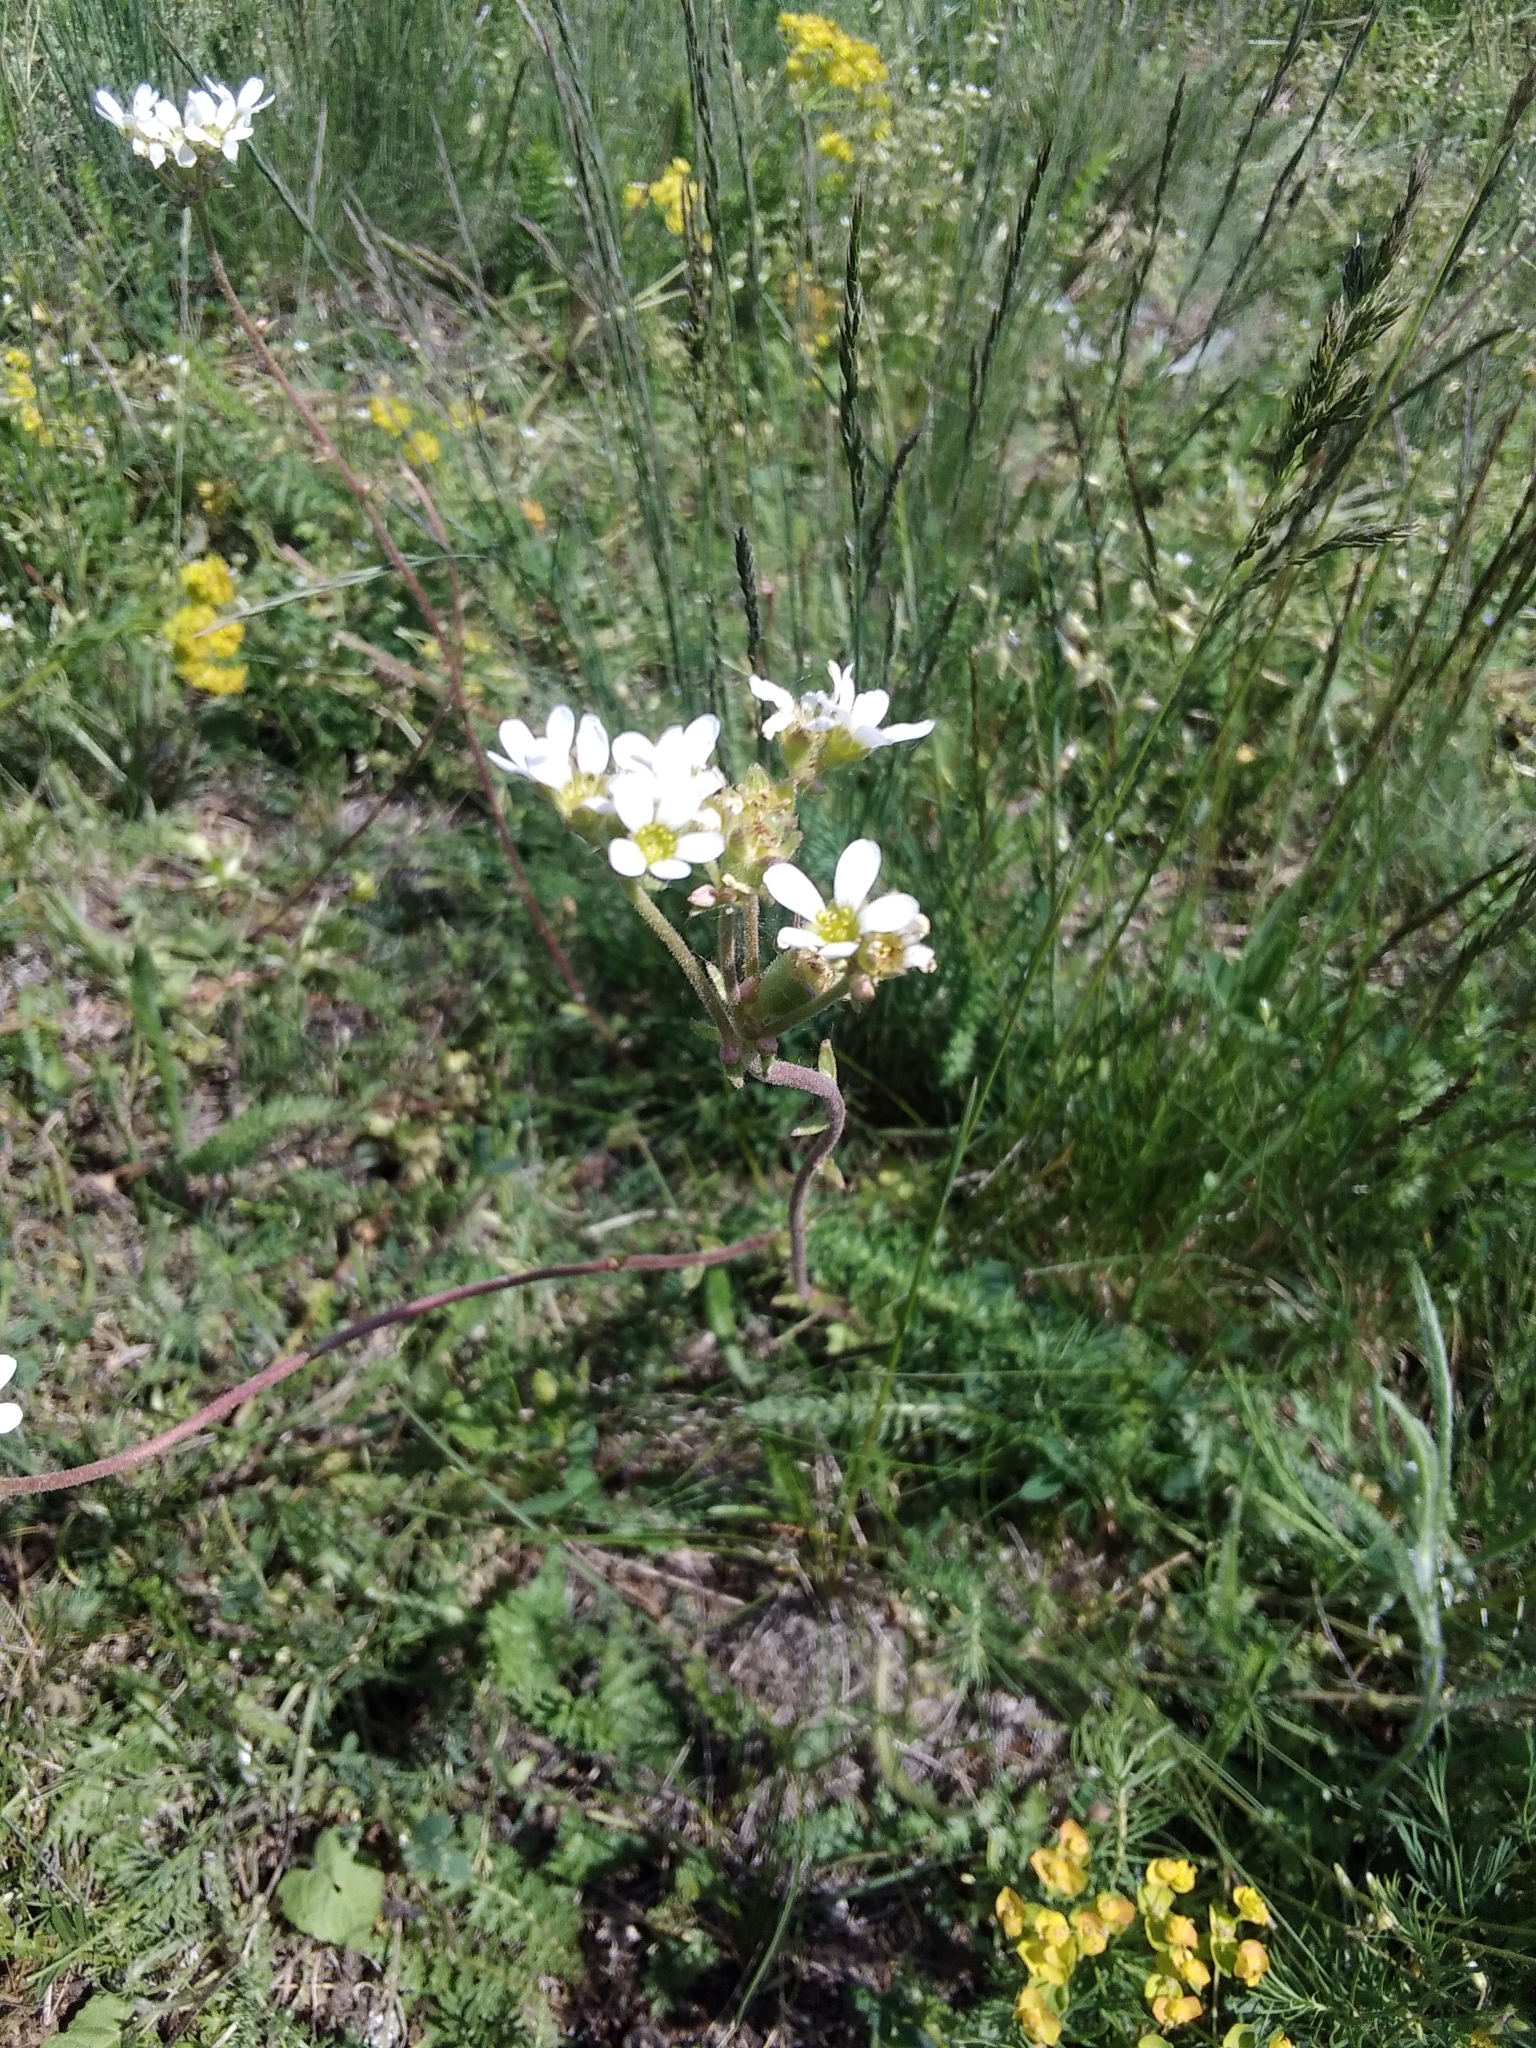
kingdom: Plantae
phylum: Tracheophyta
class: Magnoliopsida
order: Saxifragales
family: Saxifragaceae
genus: Saxifraga
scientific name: Saxifraga bulbifera
